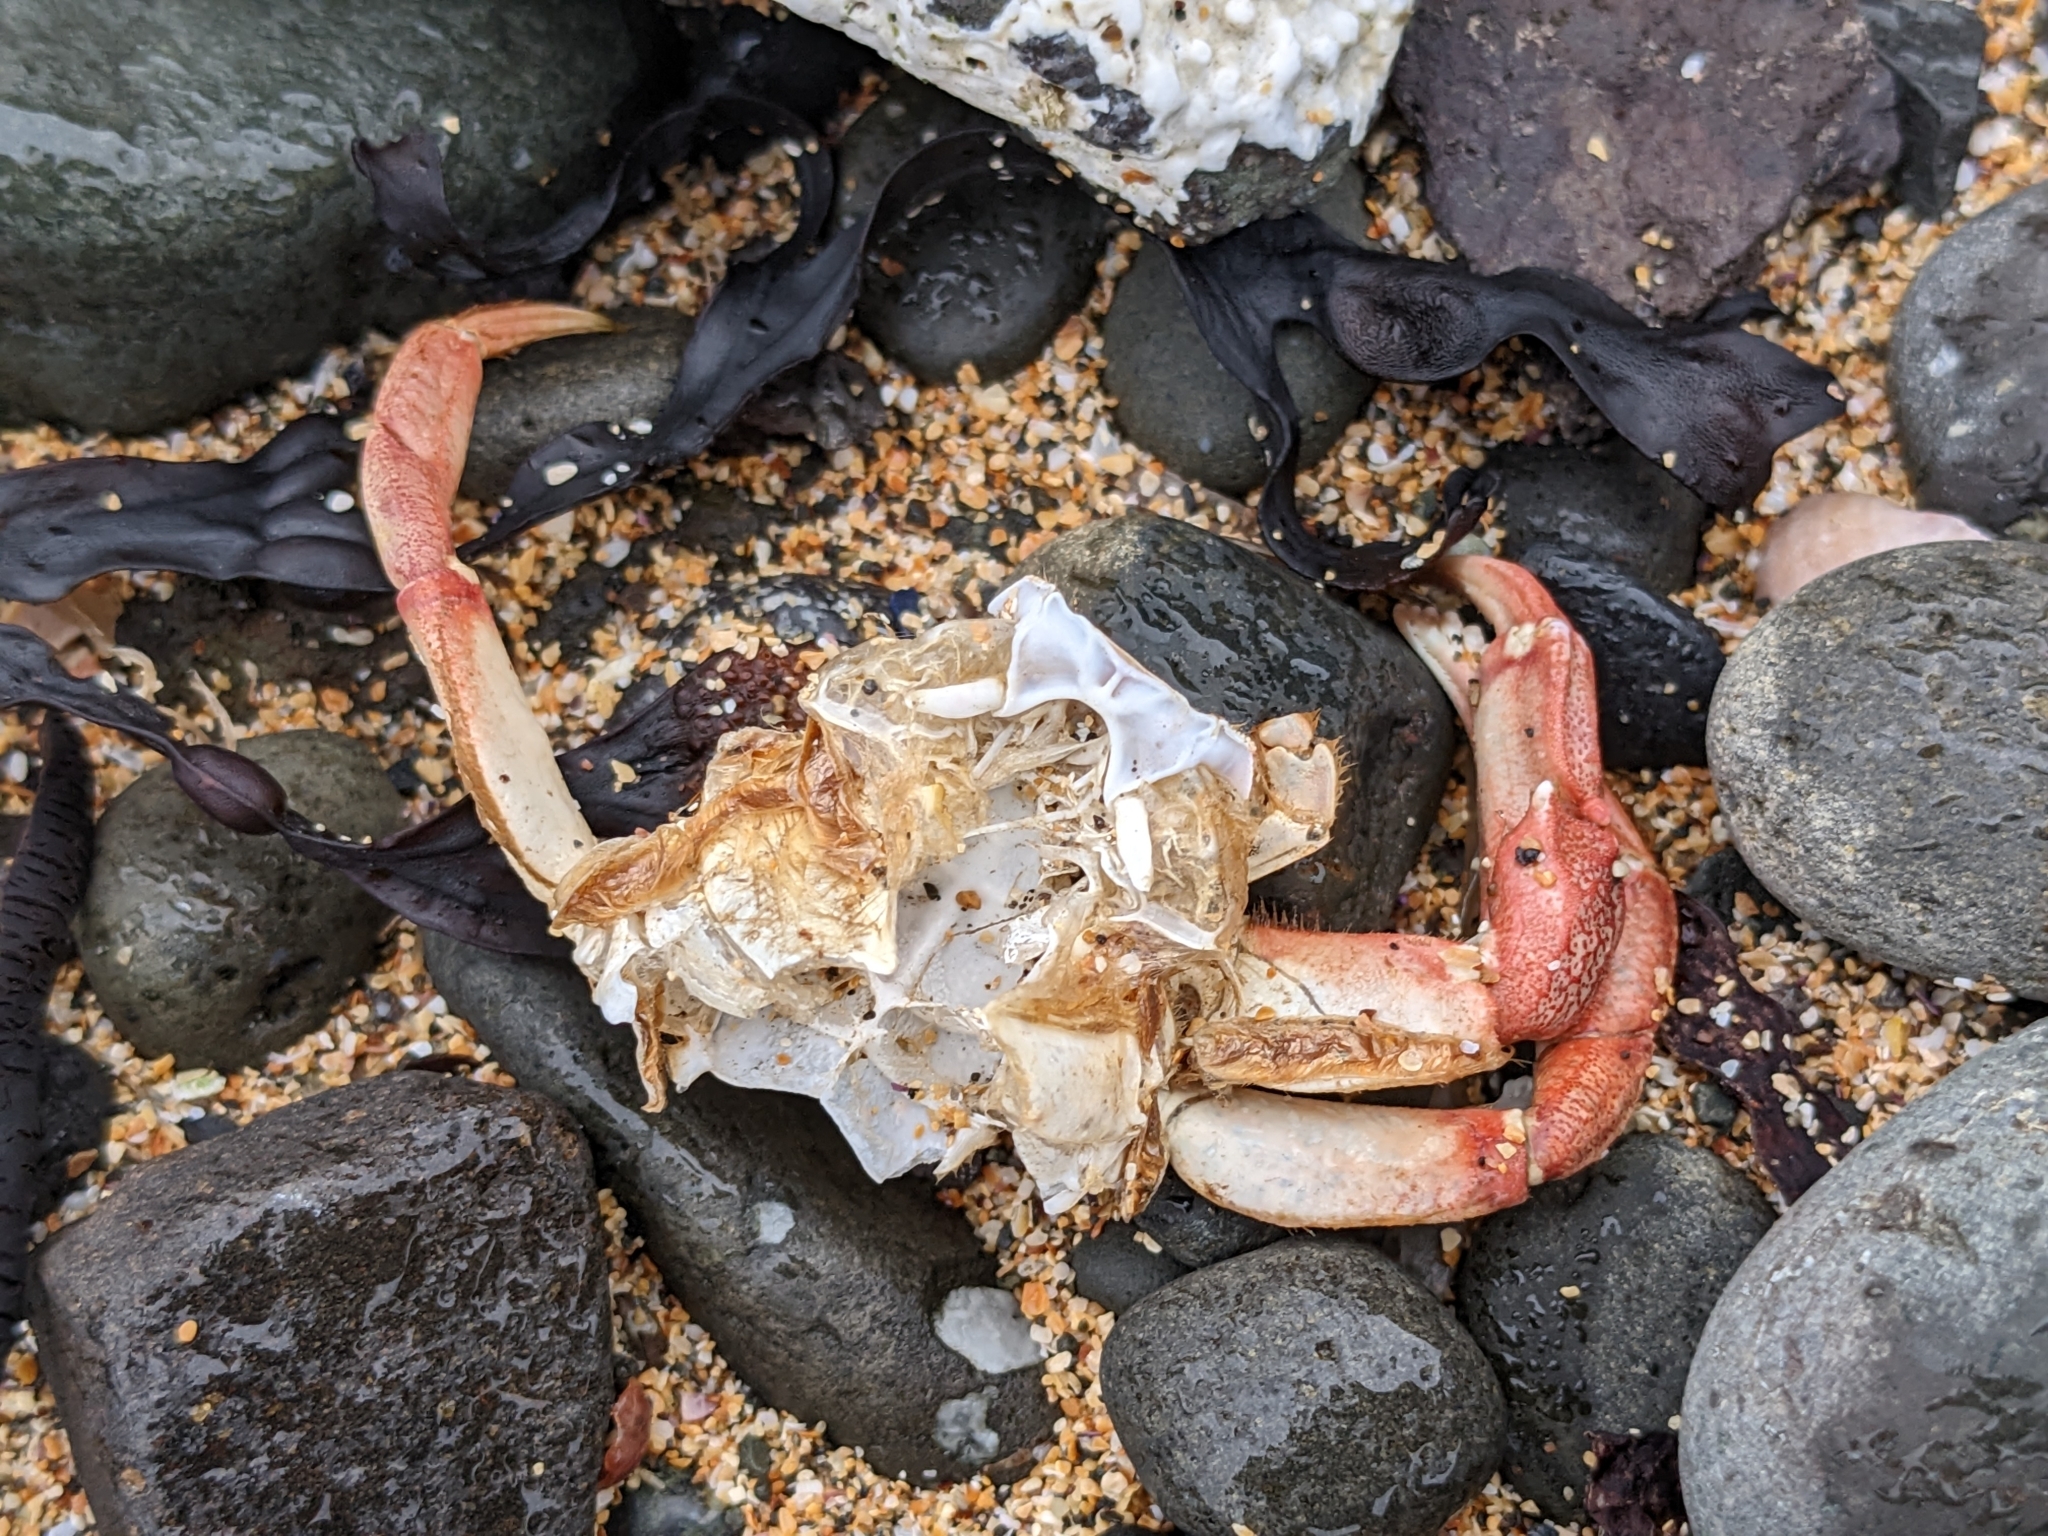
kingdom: Animalia
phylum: Arthropoda
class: Malacostraca
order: Decapoda
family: Cancridae
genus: Cancer
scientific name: Cancer irroratus
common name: Atlantic rock crab
